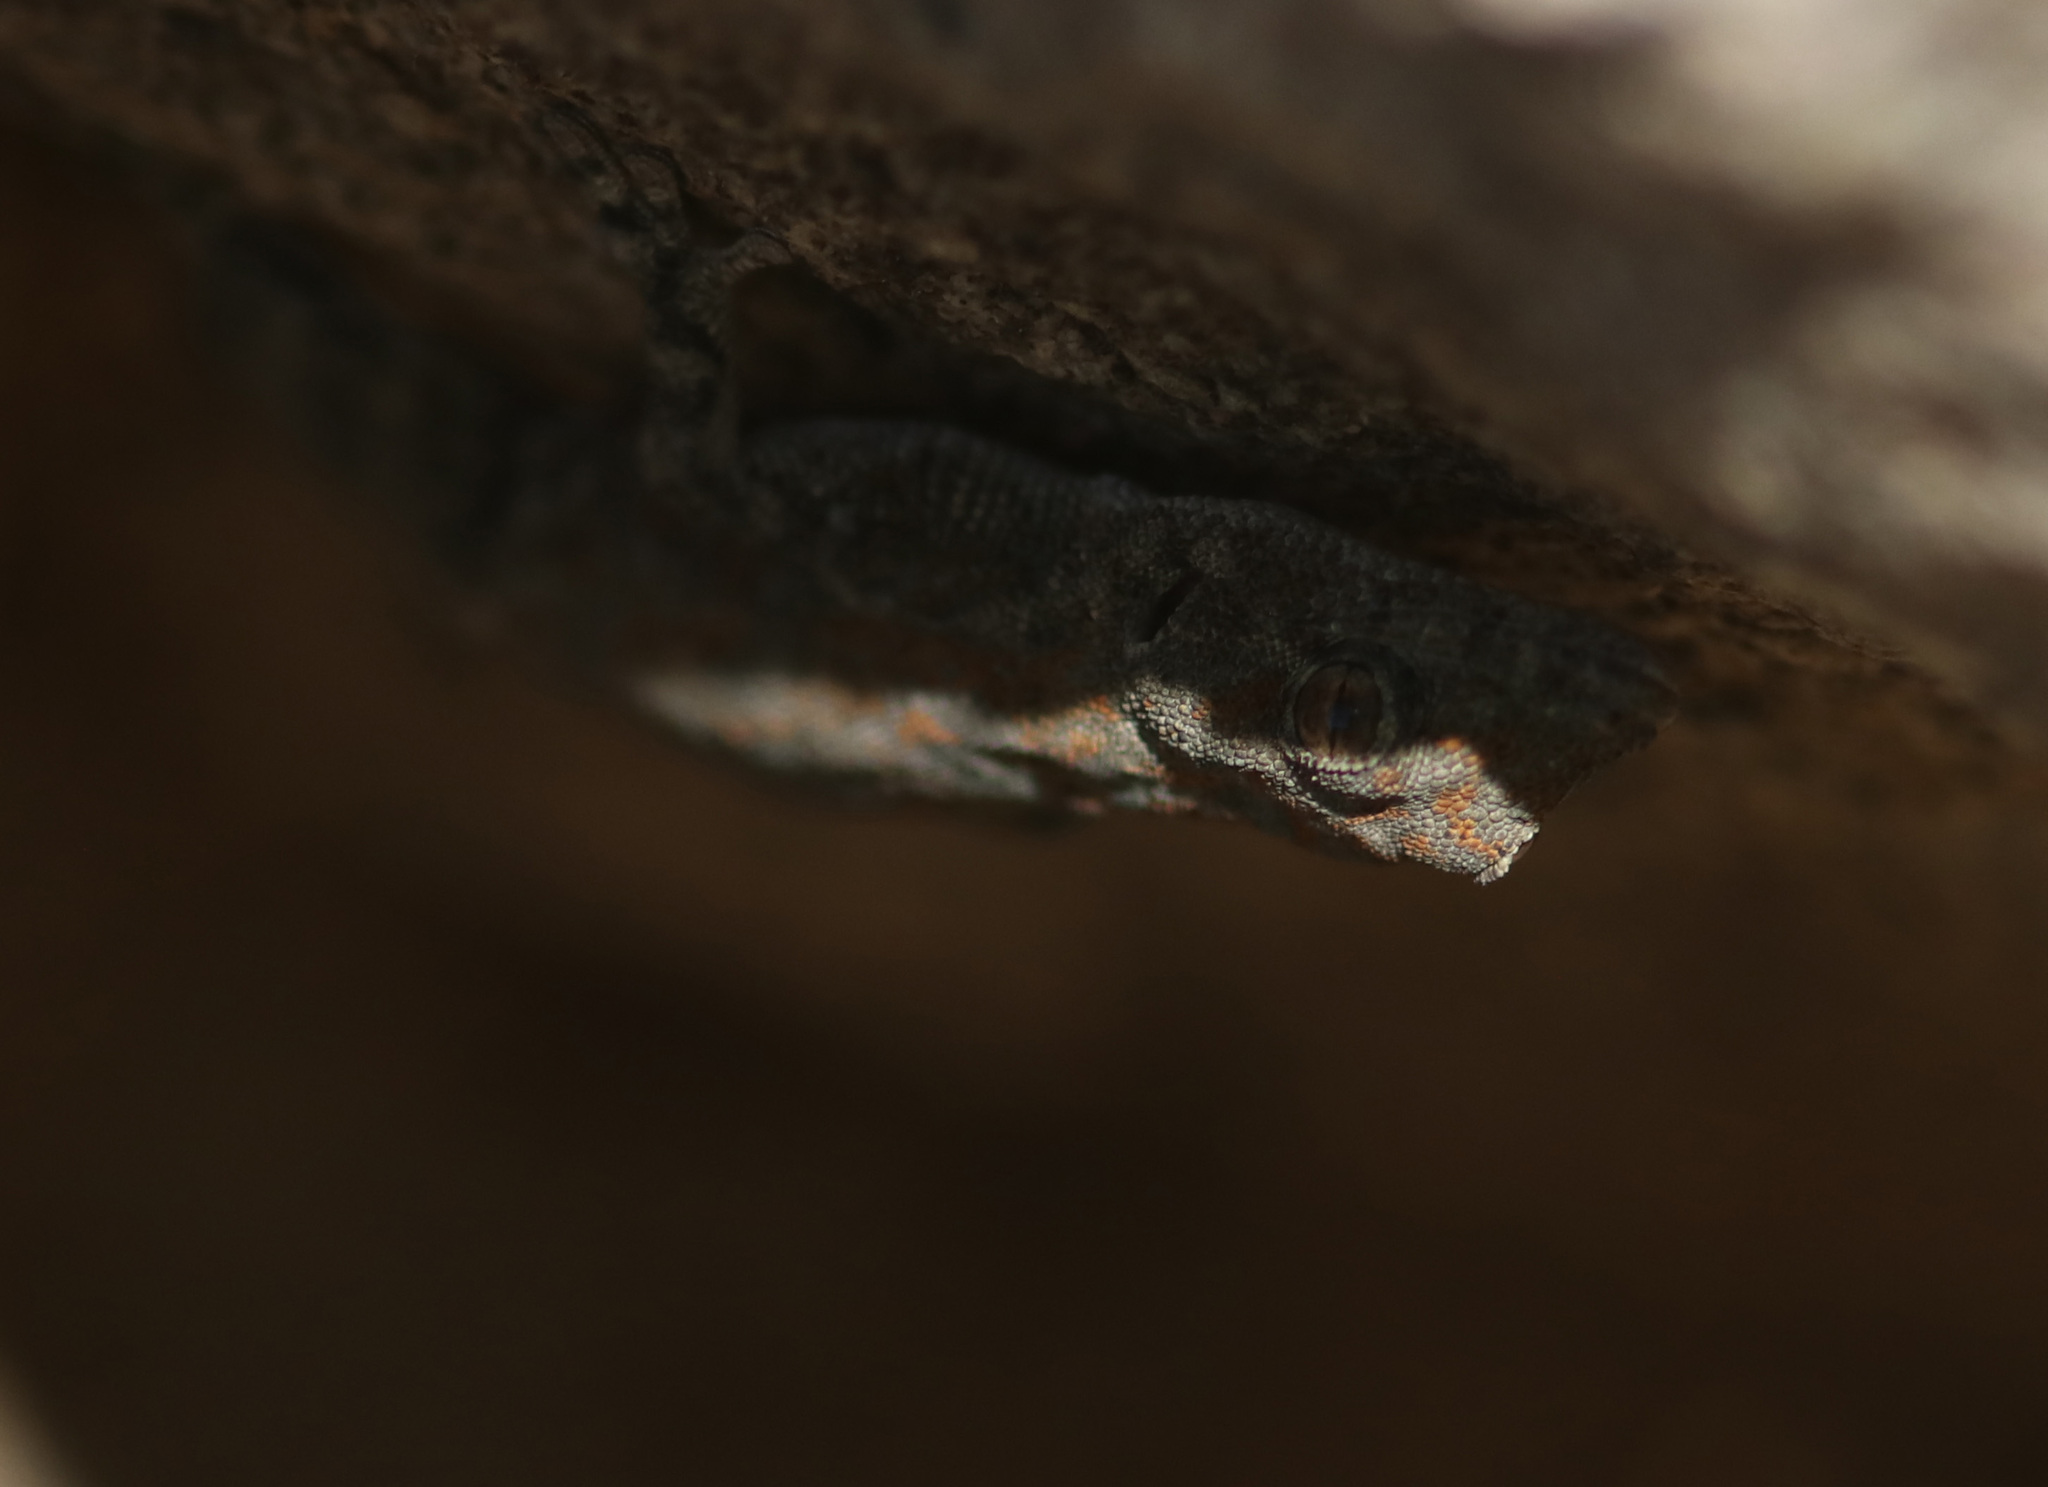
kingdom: Animalia
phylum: Chordata
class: Squamata
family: Gekkonidae
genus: Rhoptropus
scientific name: Rhoptropus barnardi
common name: Barnard’s namib day gecko
